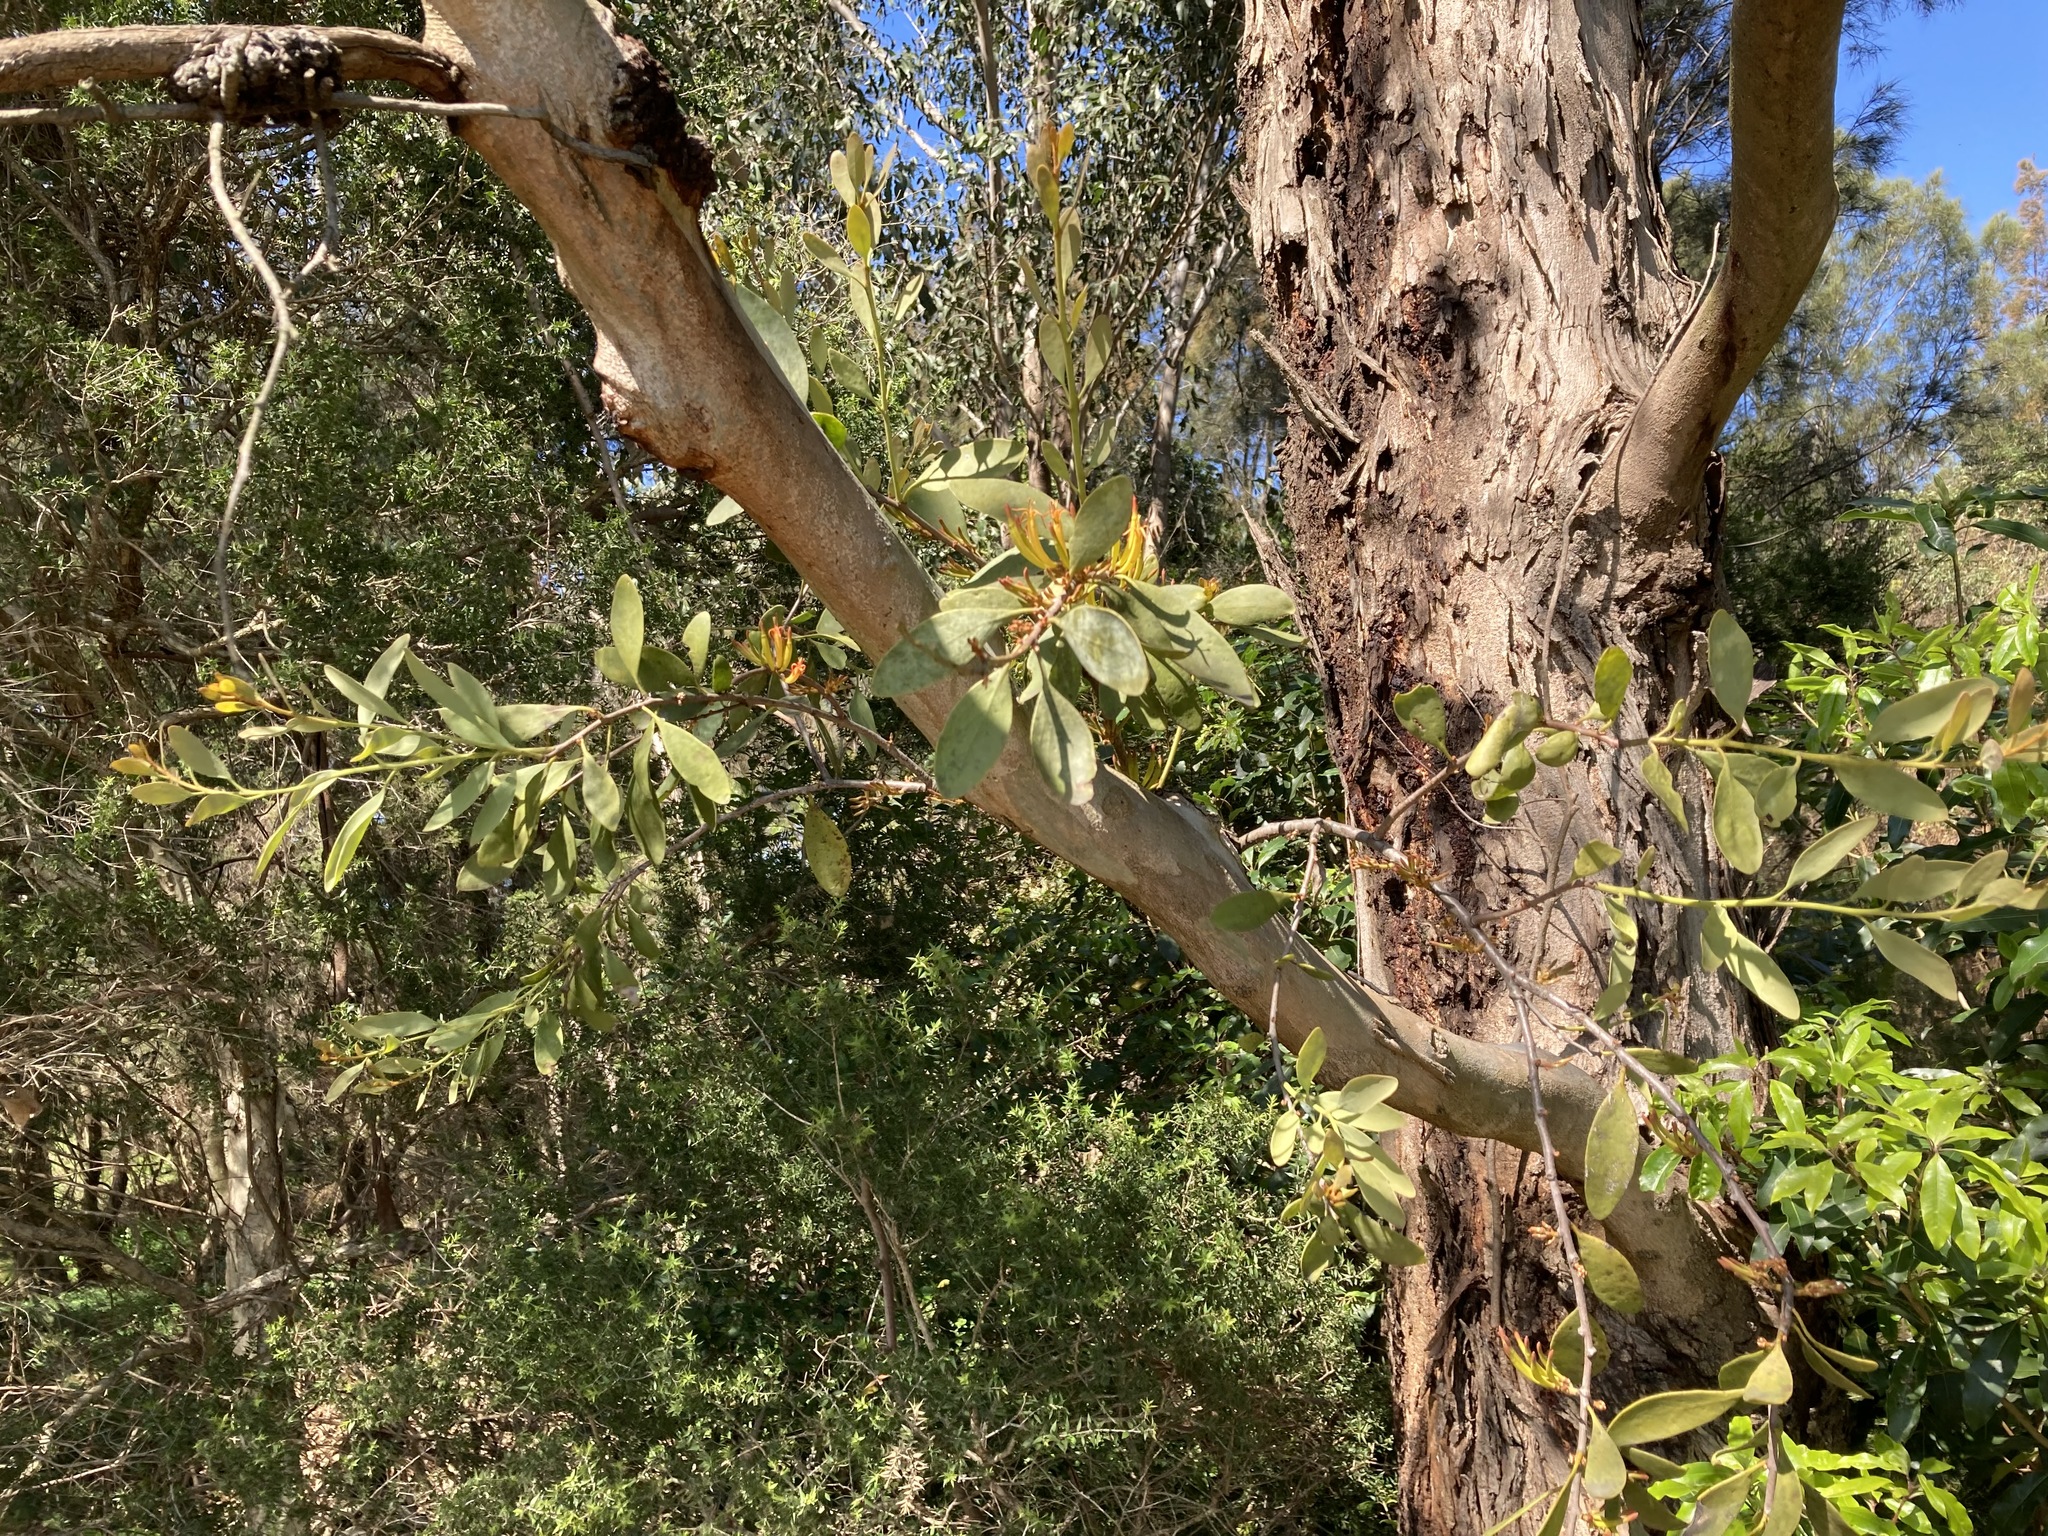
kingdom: Plantae
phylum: Tracheophyta
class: Magnoliopsida
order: Santalales
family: Loranthaceae
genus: Dendrophthoe
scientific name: Dendrophthoe vitellina
